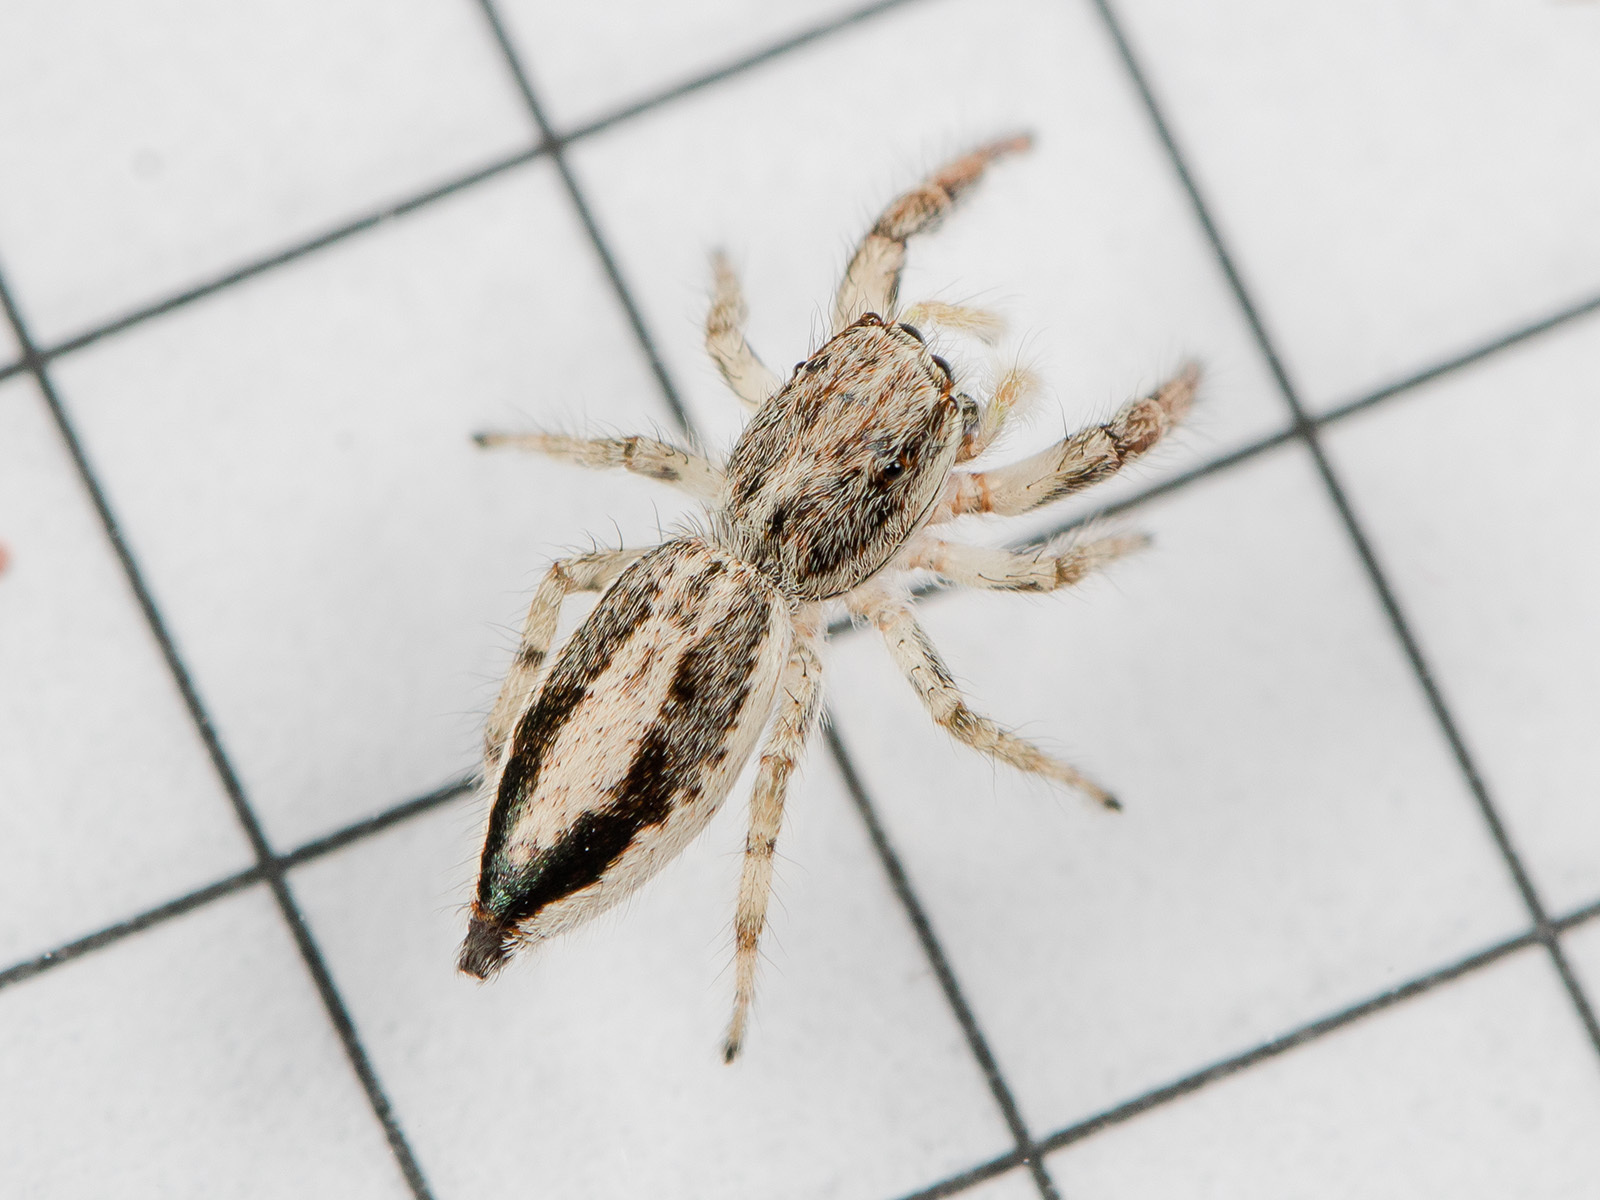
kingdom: Animalia
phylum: Arthropoda
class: Arachnida
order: Araneae
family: Salticidae
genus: Pseudicius
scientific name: Pseudicius courtauldi
